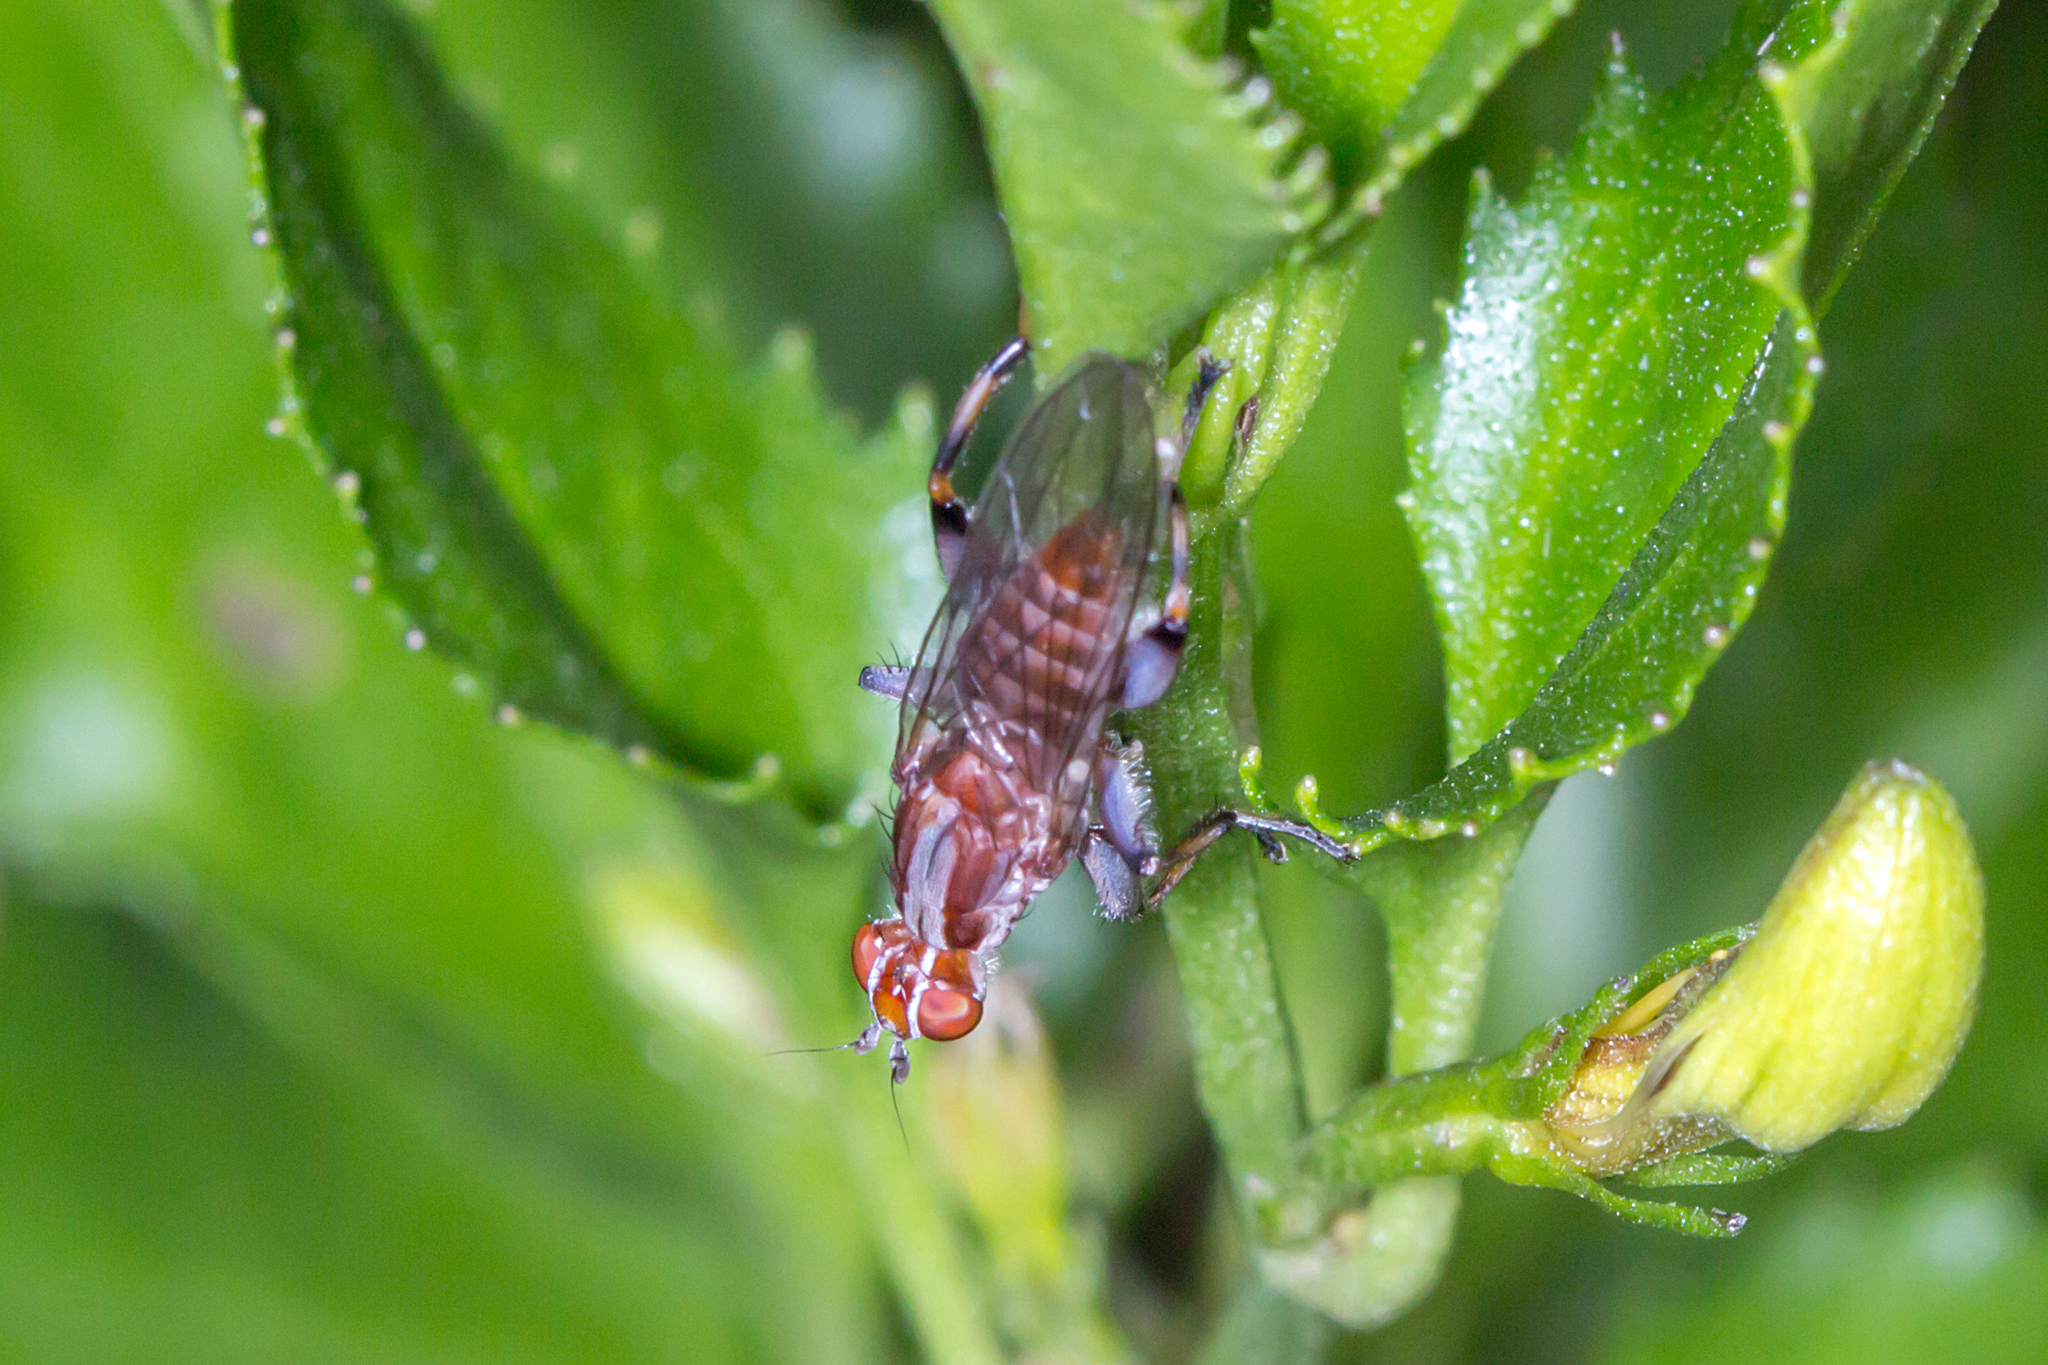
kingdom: Animalia
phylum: Arthropoda
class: Insecta
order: Diptera
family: Heleomyzidae
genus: Tapeigaster
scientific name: Tapeigaster nigricornis
